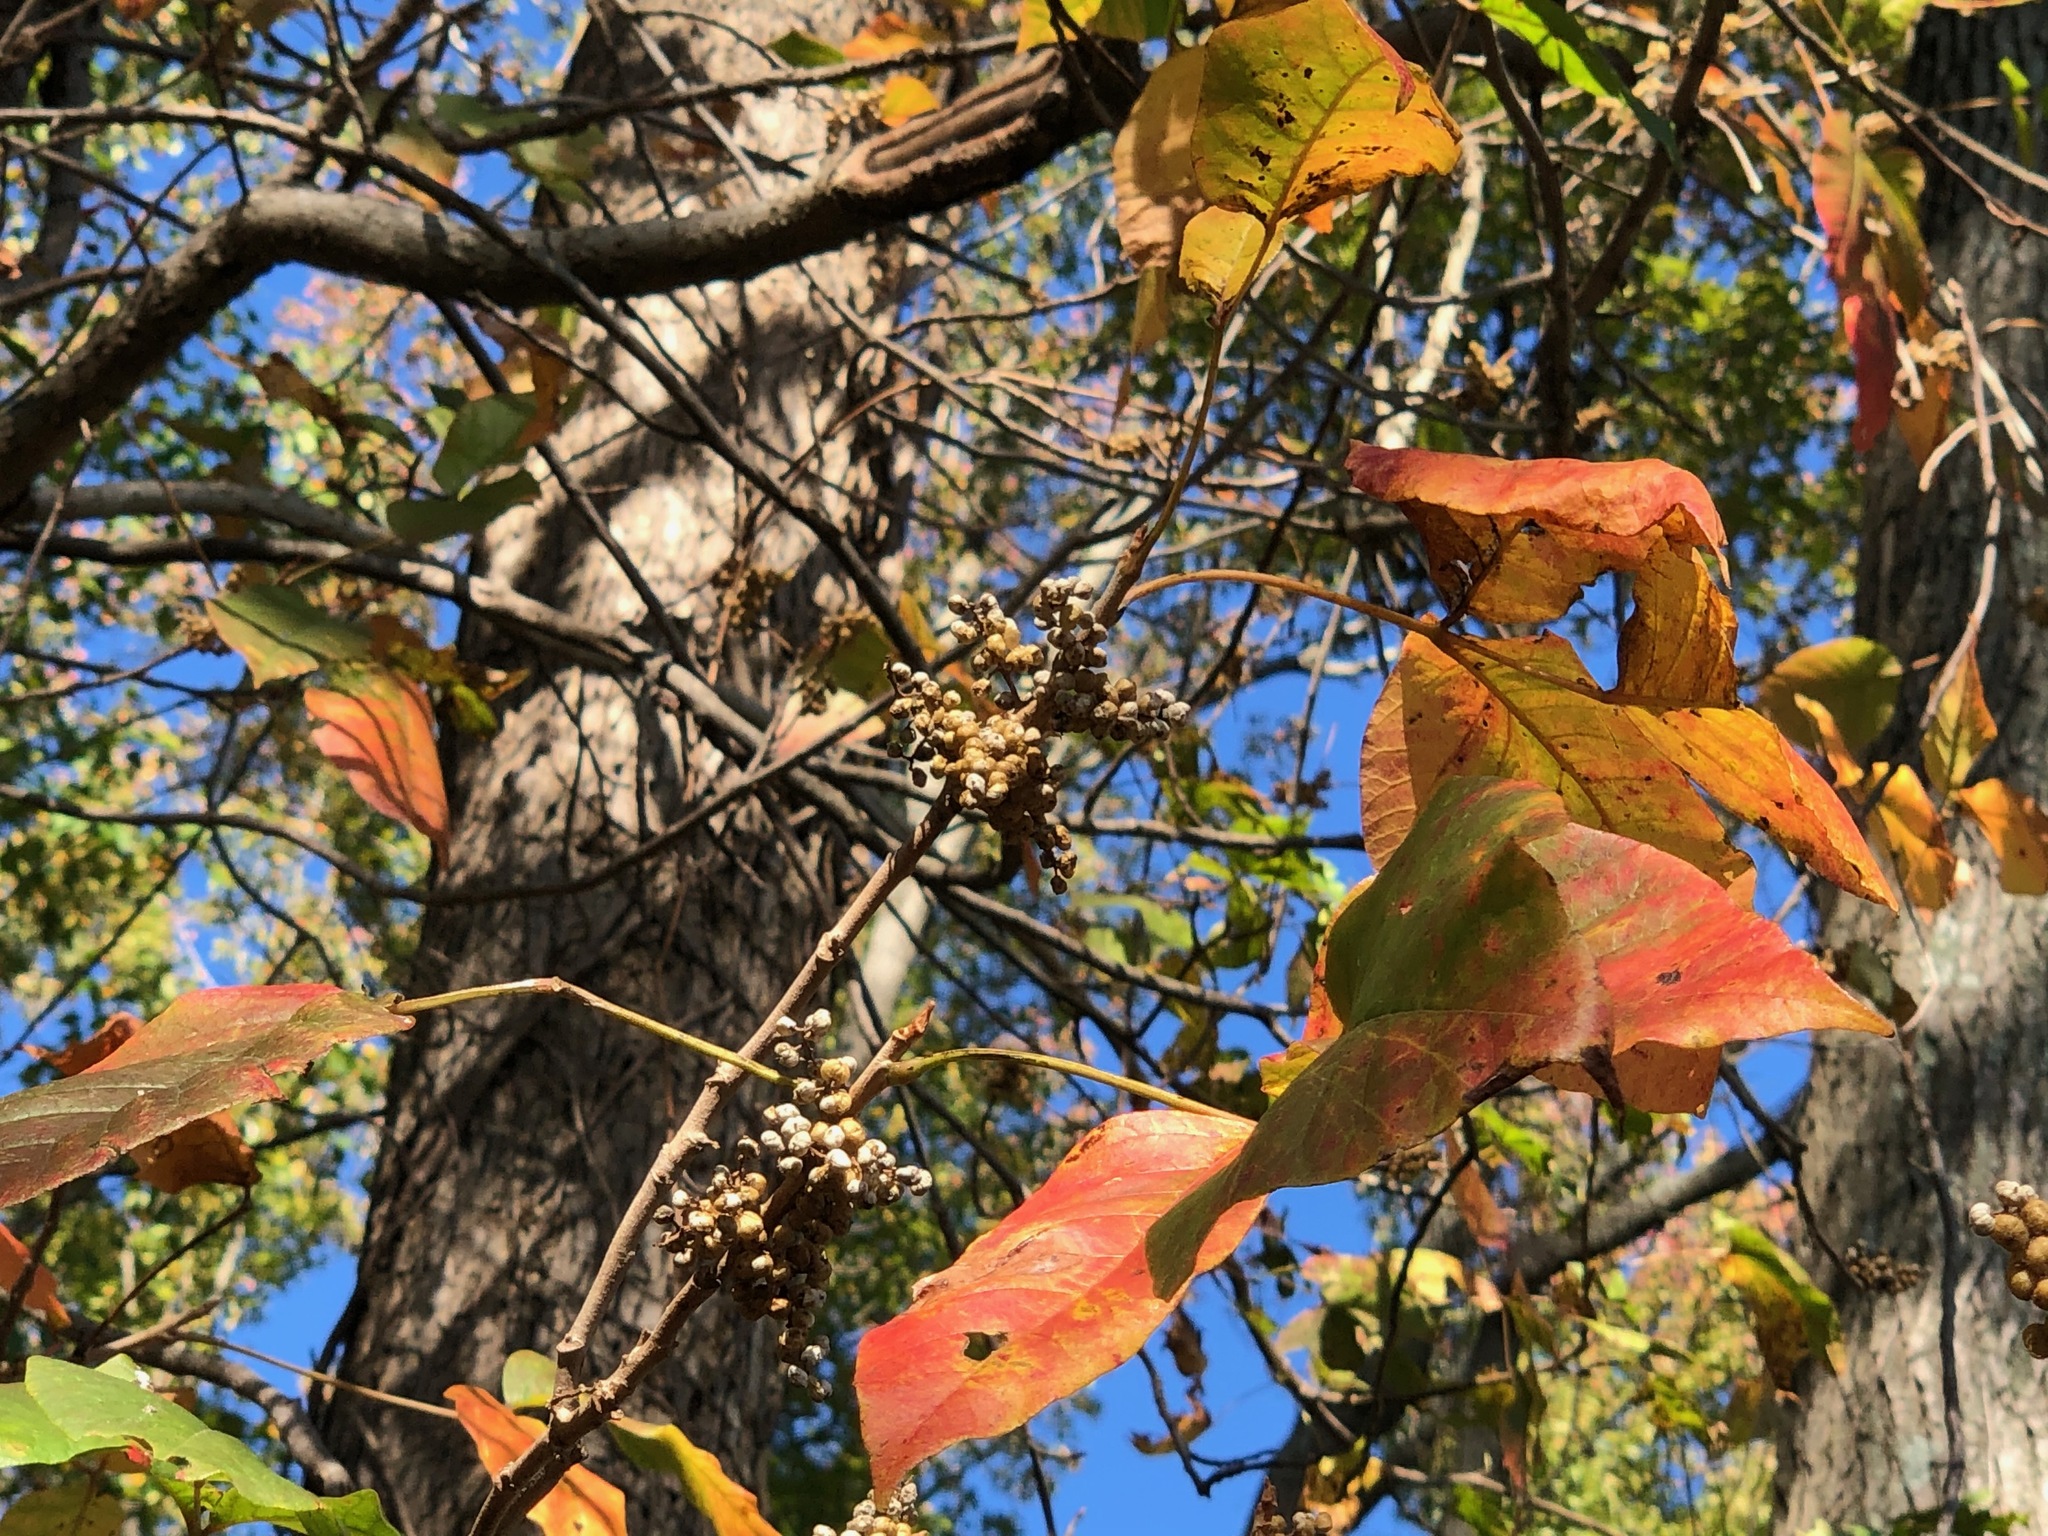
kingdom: Plantae
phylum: Tracheophyta
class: Magnoliopsida
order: Sapindales
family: Anacardiaceae
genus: Toxicodendron
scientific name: Toxicodendron radicans
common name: Poison ivy
